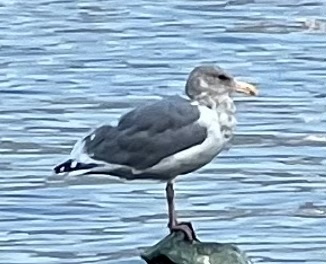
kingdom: Animalia
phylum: Chordata
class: Aves
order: Charadriiformes
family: Laridae
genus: Larus
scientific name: Larus
